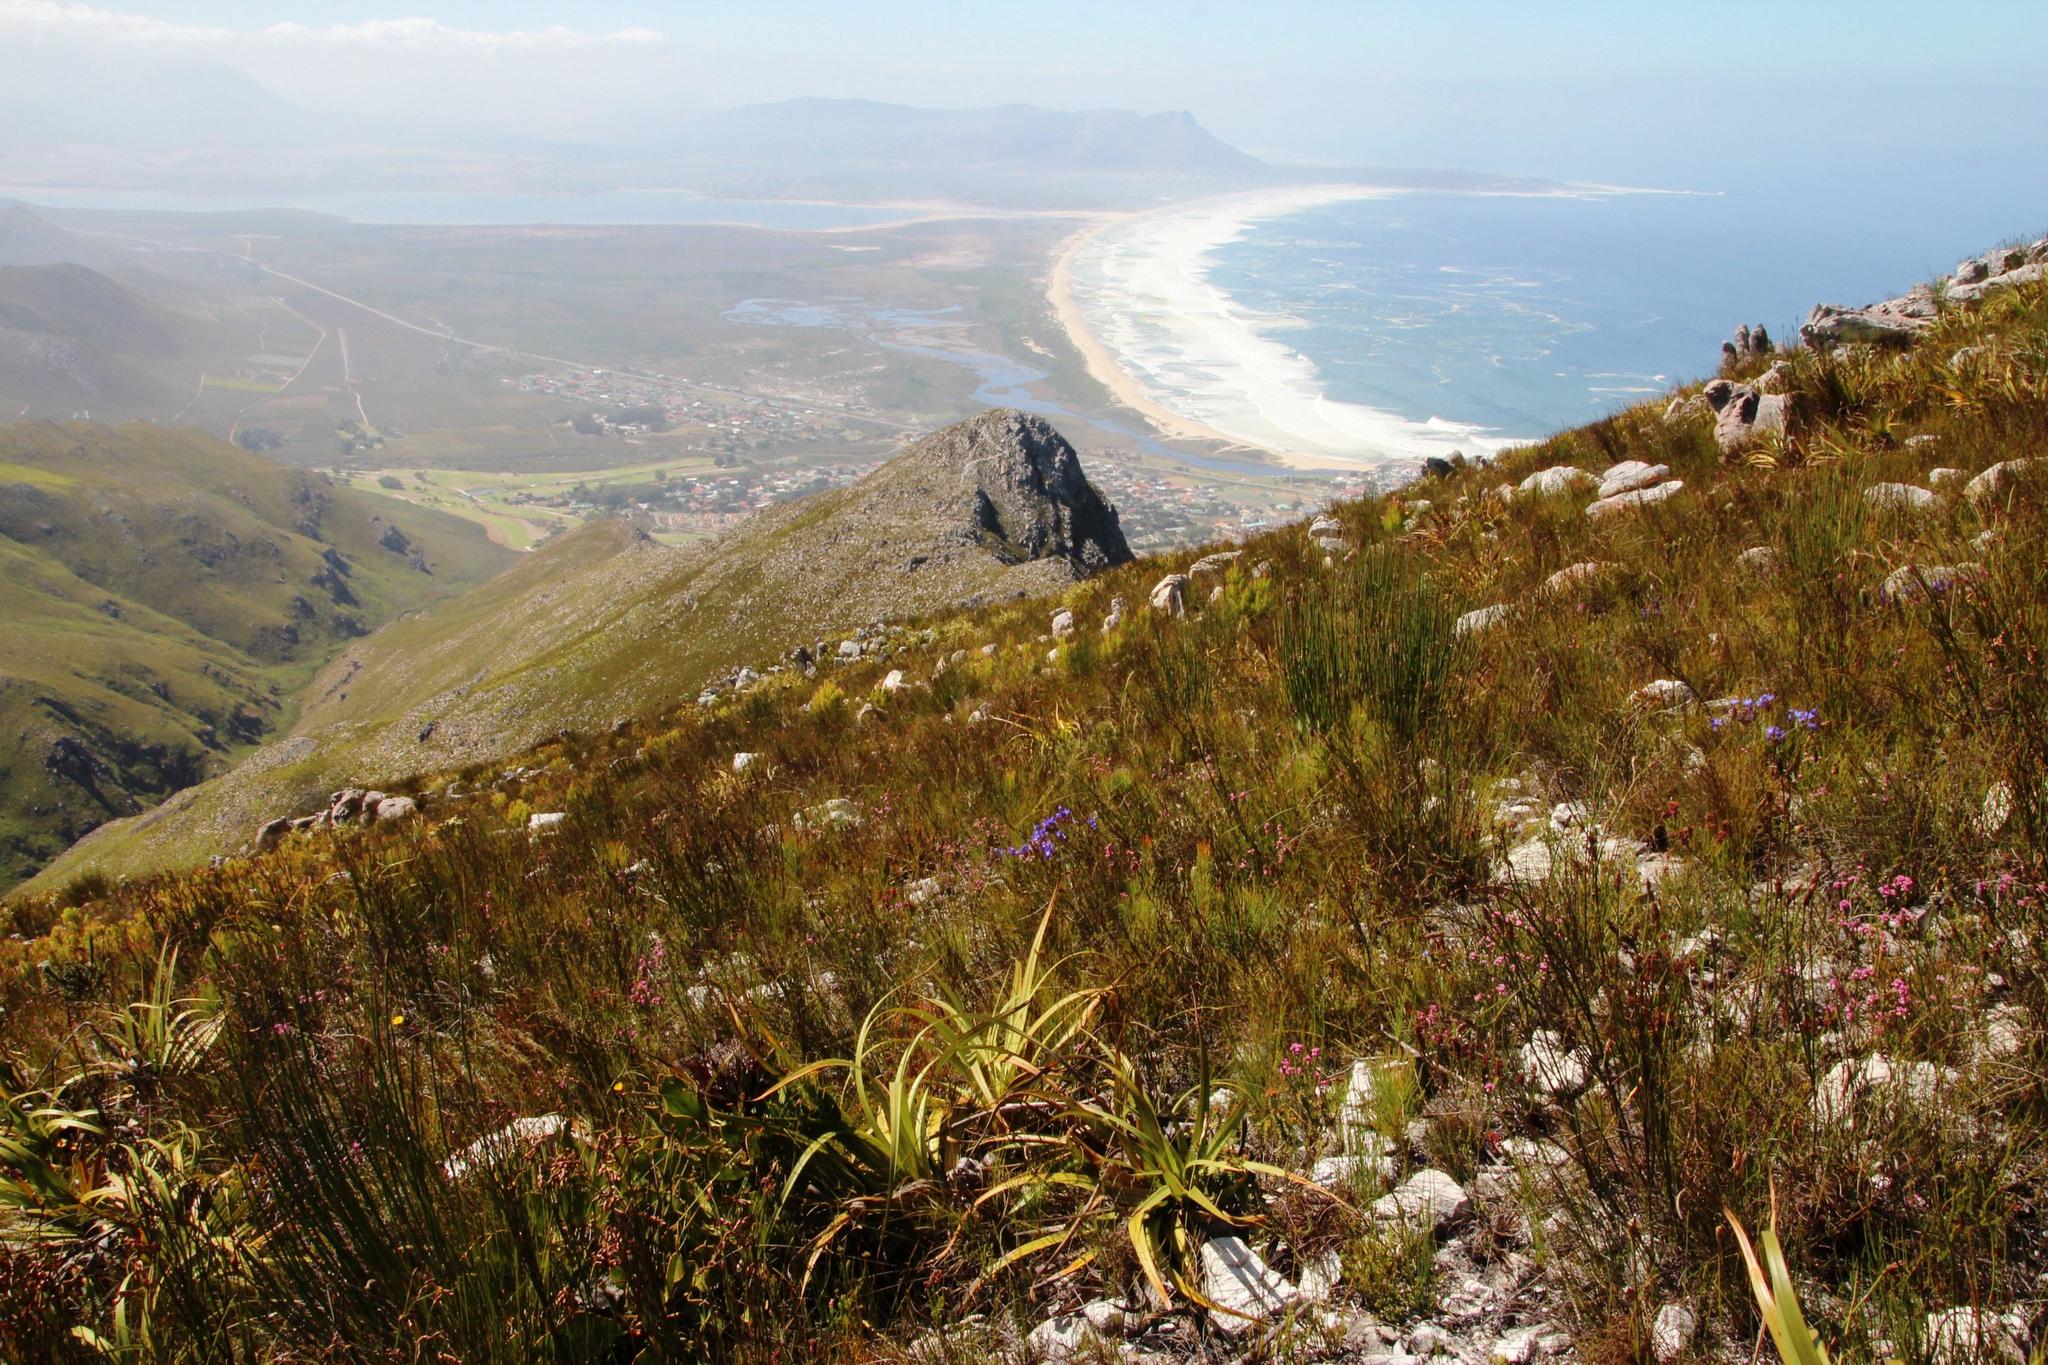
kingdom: Plantae
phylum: Tracheophyta
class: Liliopsida
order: Poales
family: Cyperaceae
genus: Tetraria
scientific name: Tetraria thermalis
